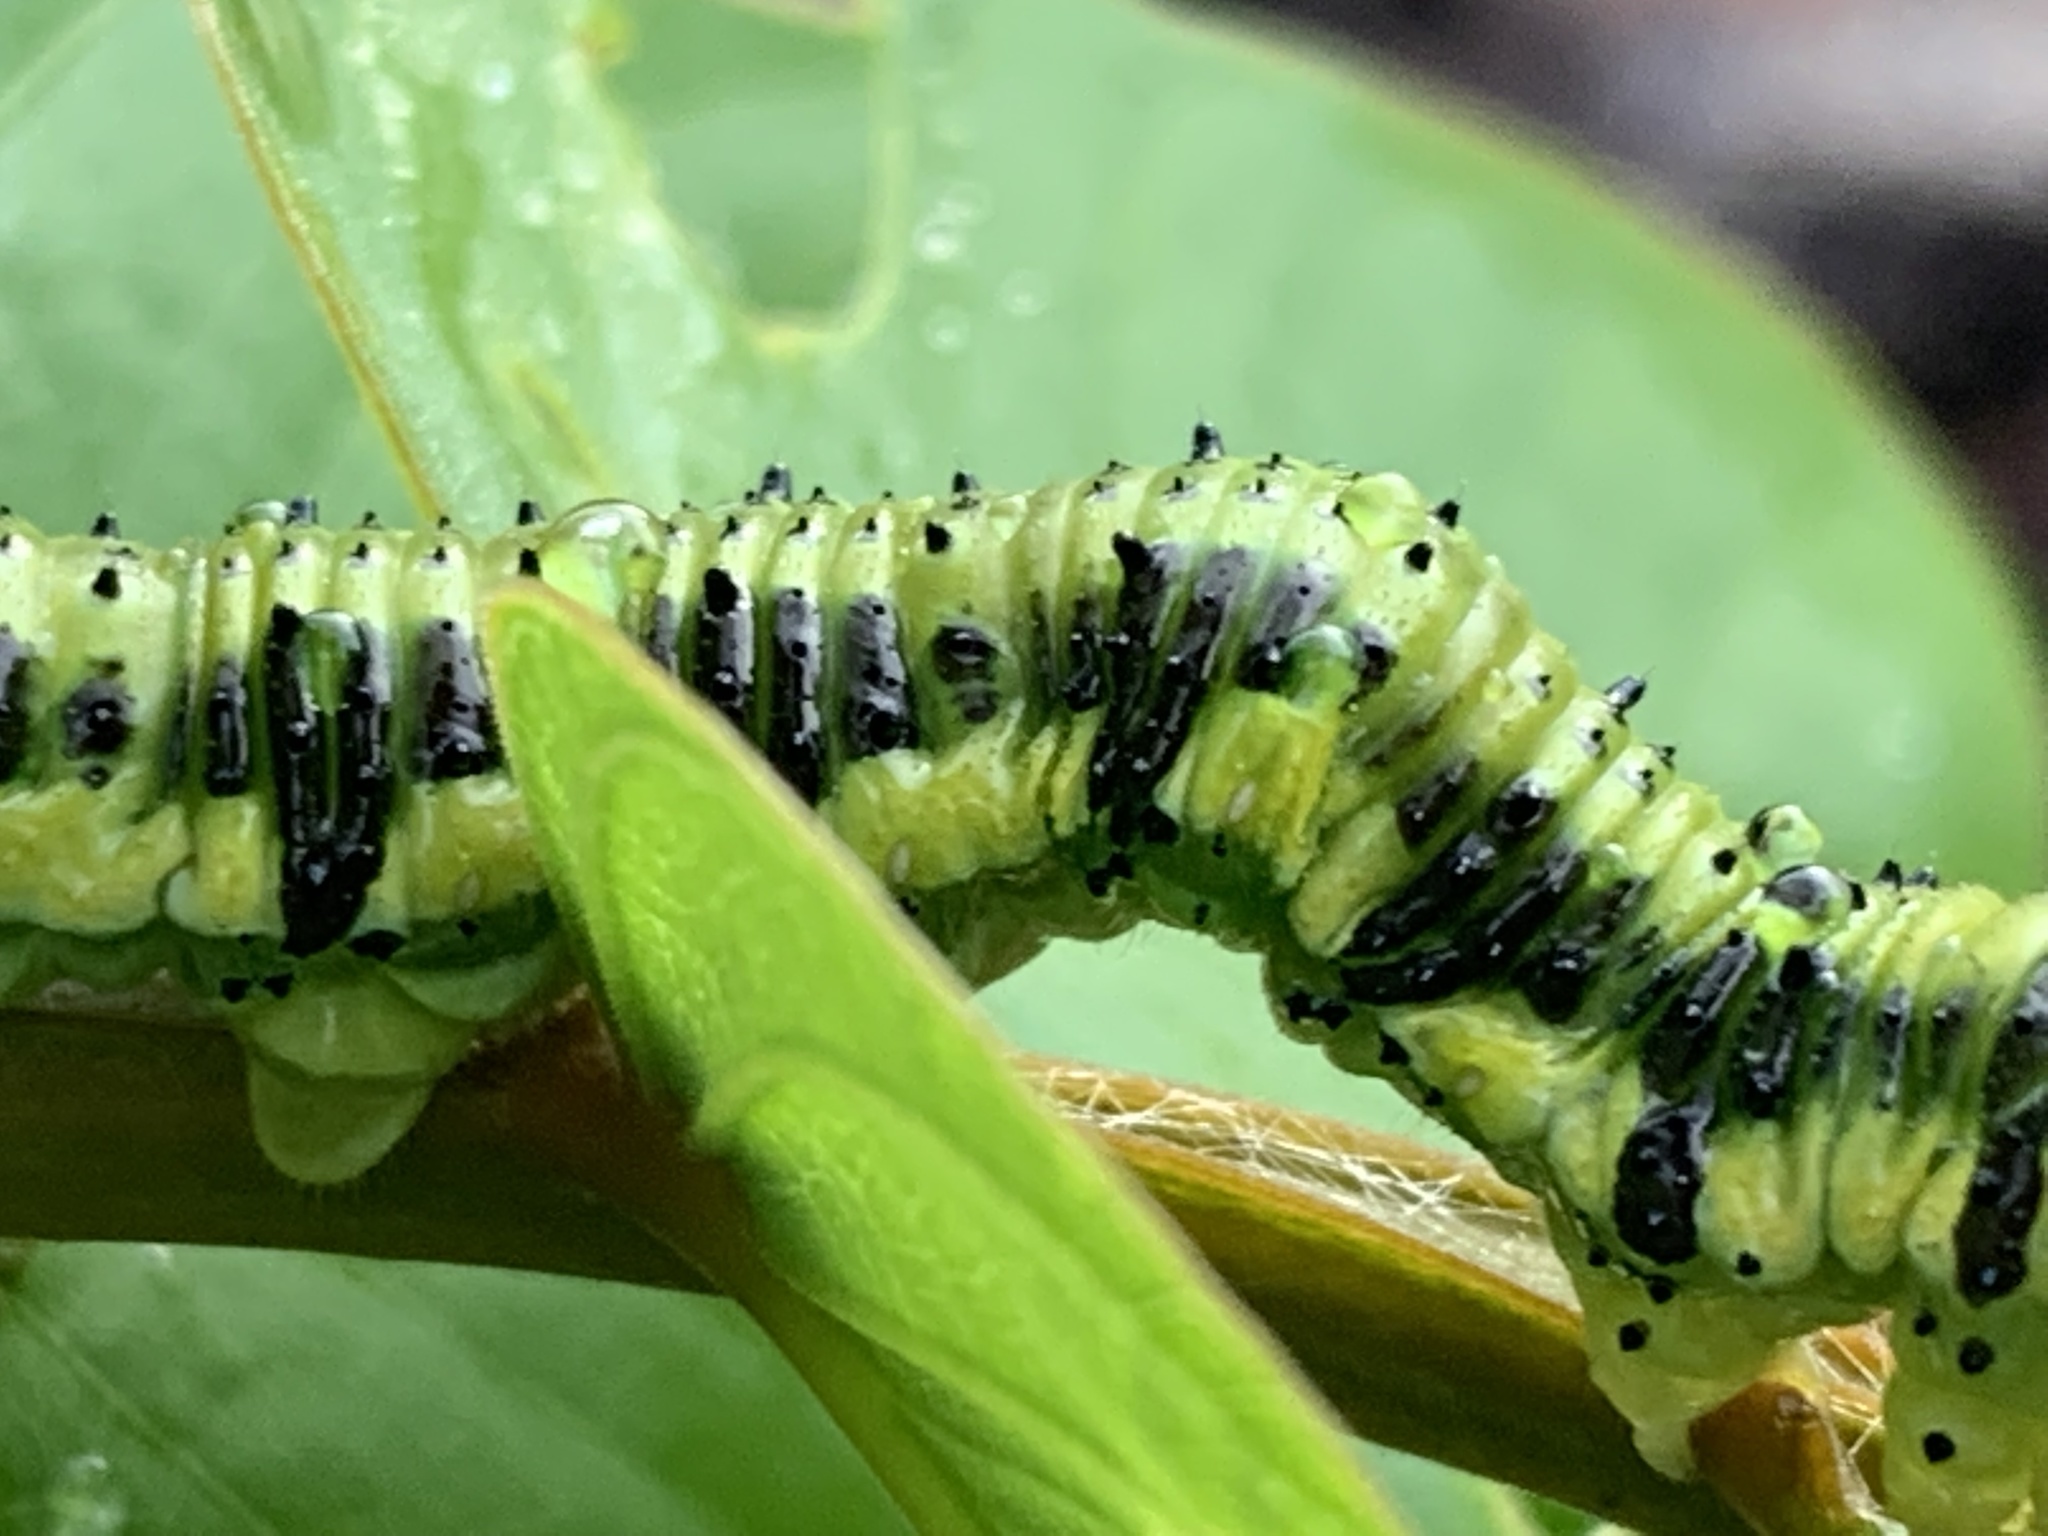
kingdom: Animalia
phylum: Arthropoda
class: Insecta
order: Lepidoptera
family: Pieridae
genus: Phoebis
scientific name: Phoebis philea
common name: Orange-barred giant sulphur
